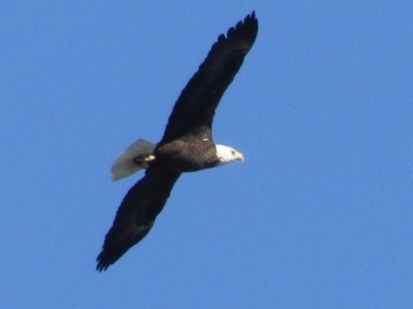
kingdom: Animalia
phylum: Chordata
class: Aves
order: Accipitriformes
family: Accipitridae
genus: Haliaeetus
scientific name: Haliaeetus leucocephalus
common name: Bald eagle
